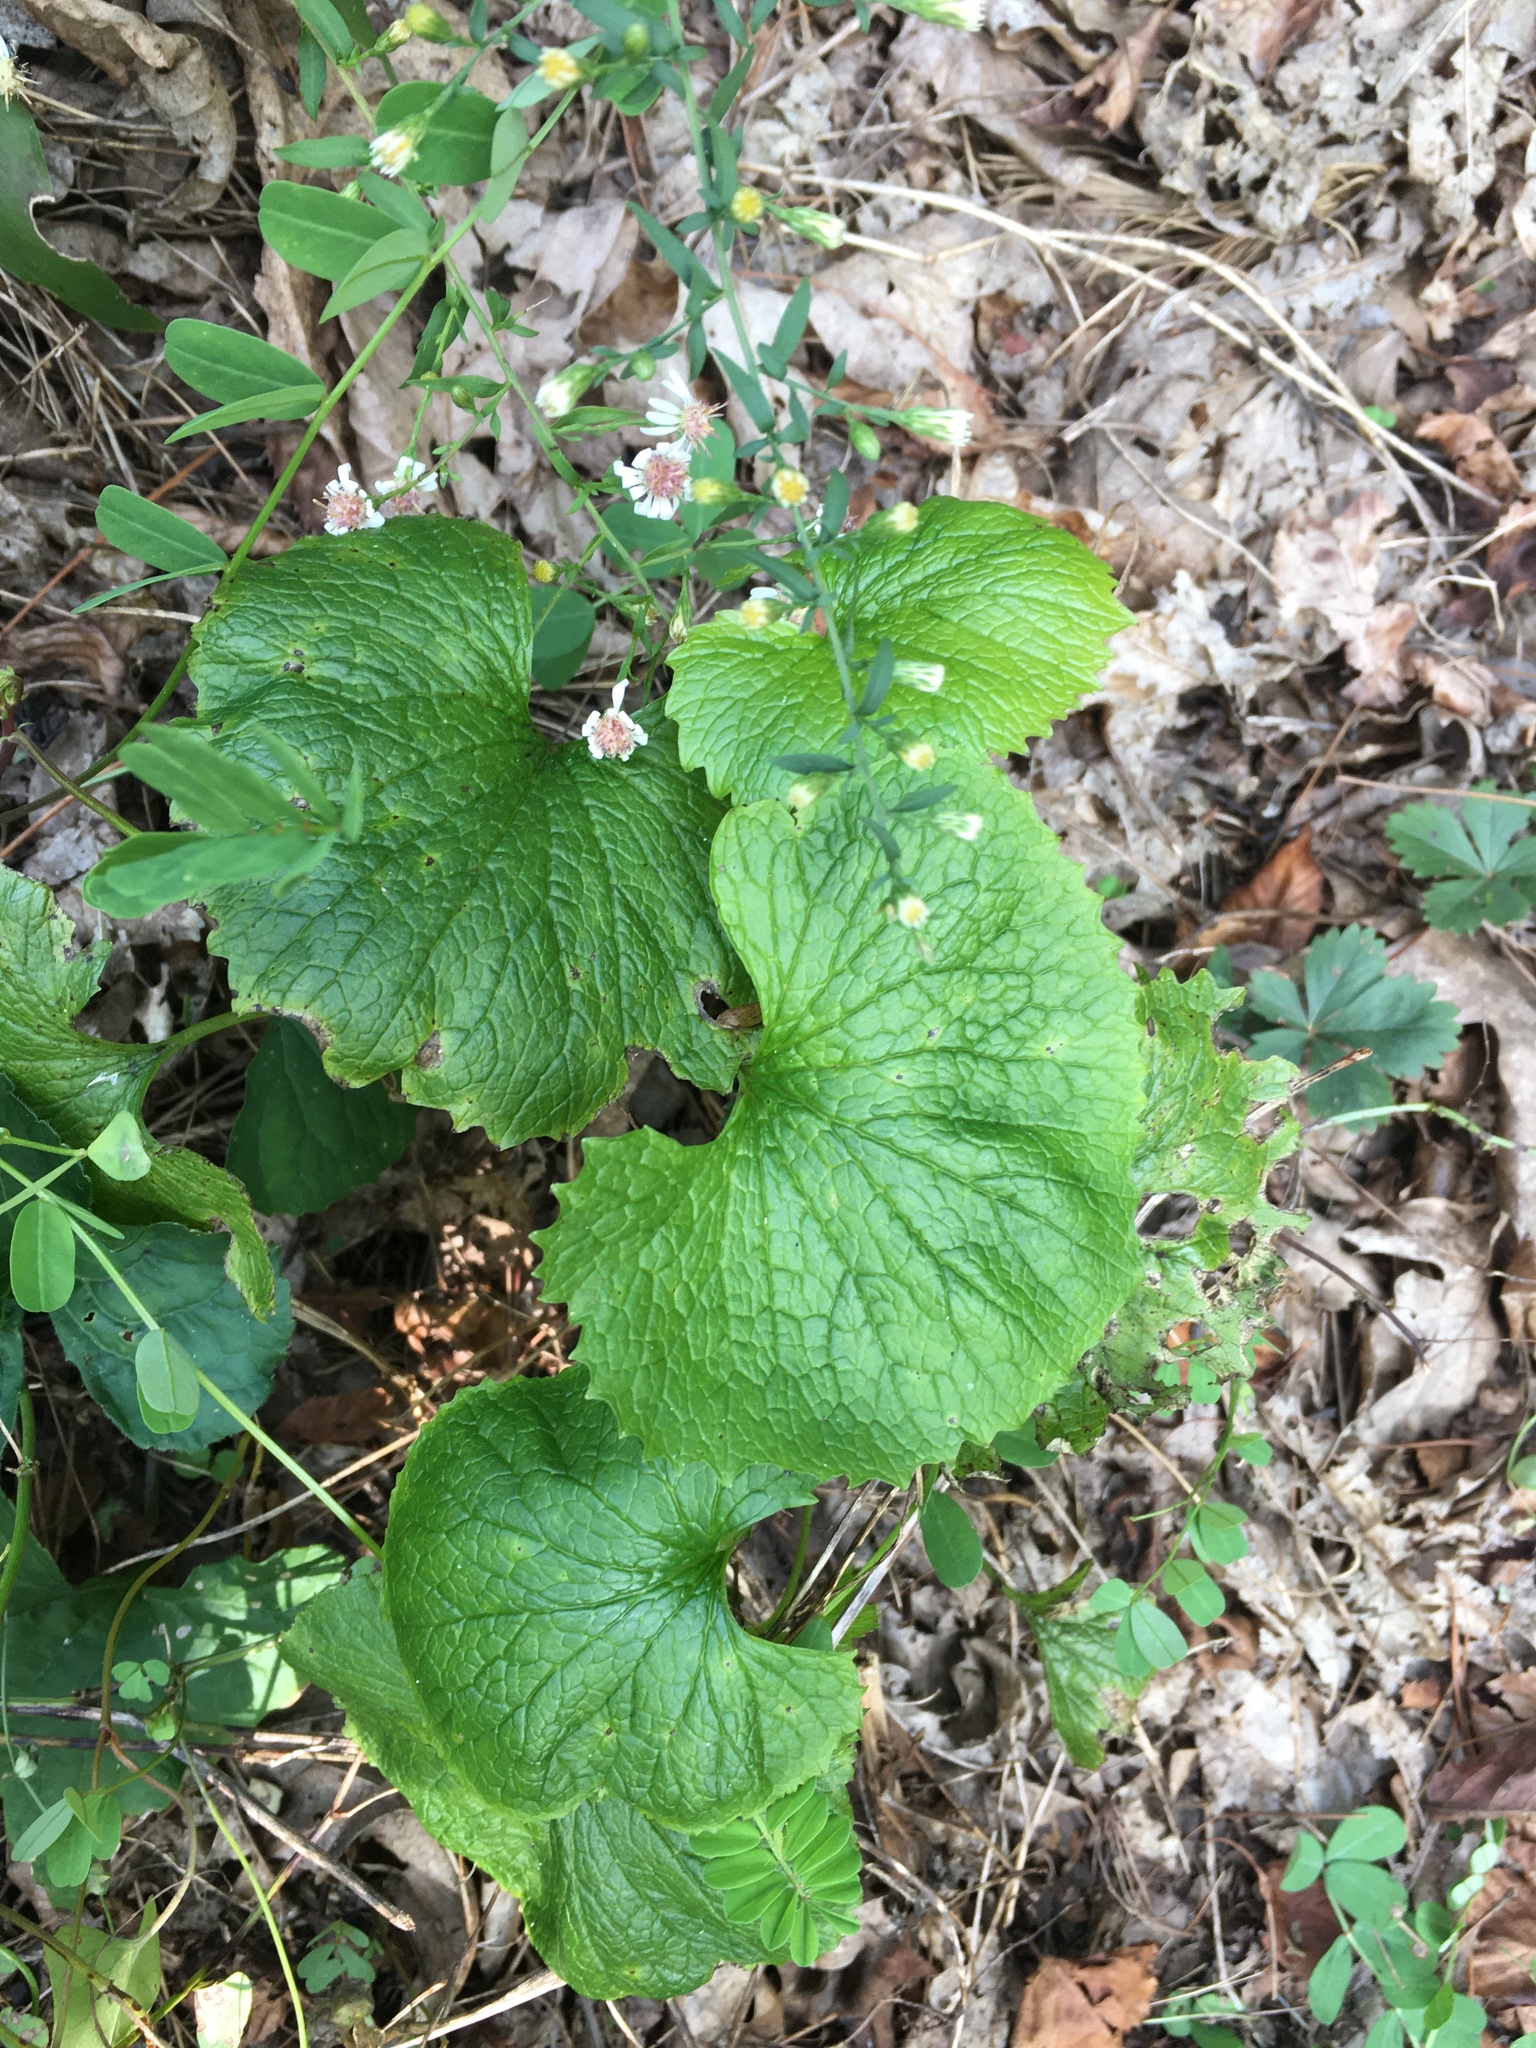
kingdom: Plantae
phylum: Tracheophyta
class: Magnoliopsida
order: Brassicales
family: Brassicaceae
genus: Alliaria
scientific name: Alliaria petiolata
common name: Garlic mustard
